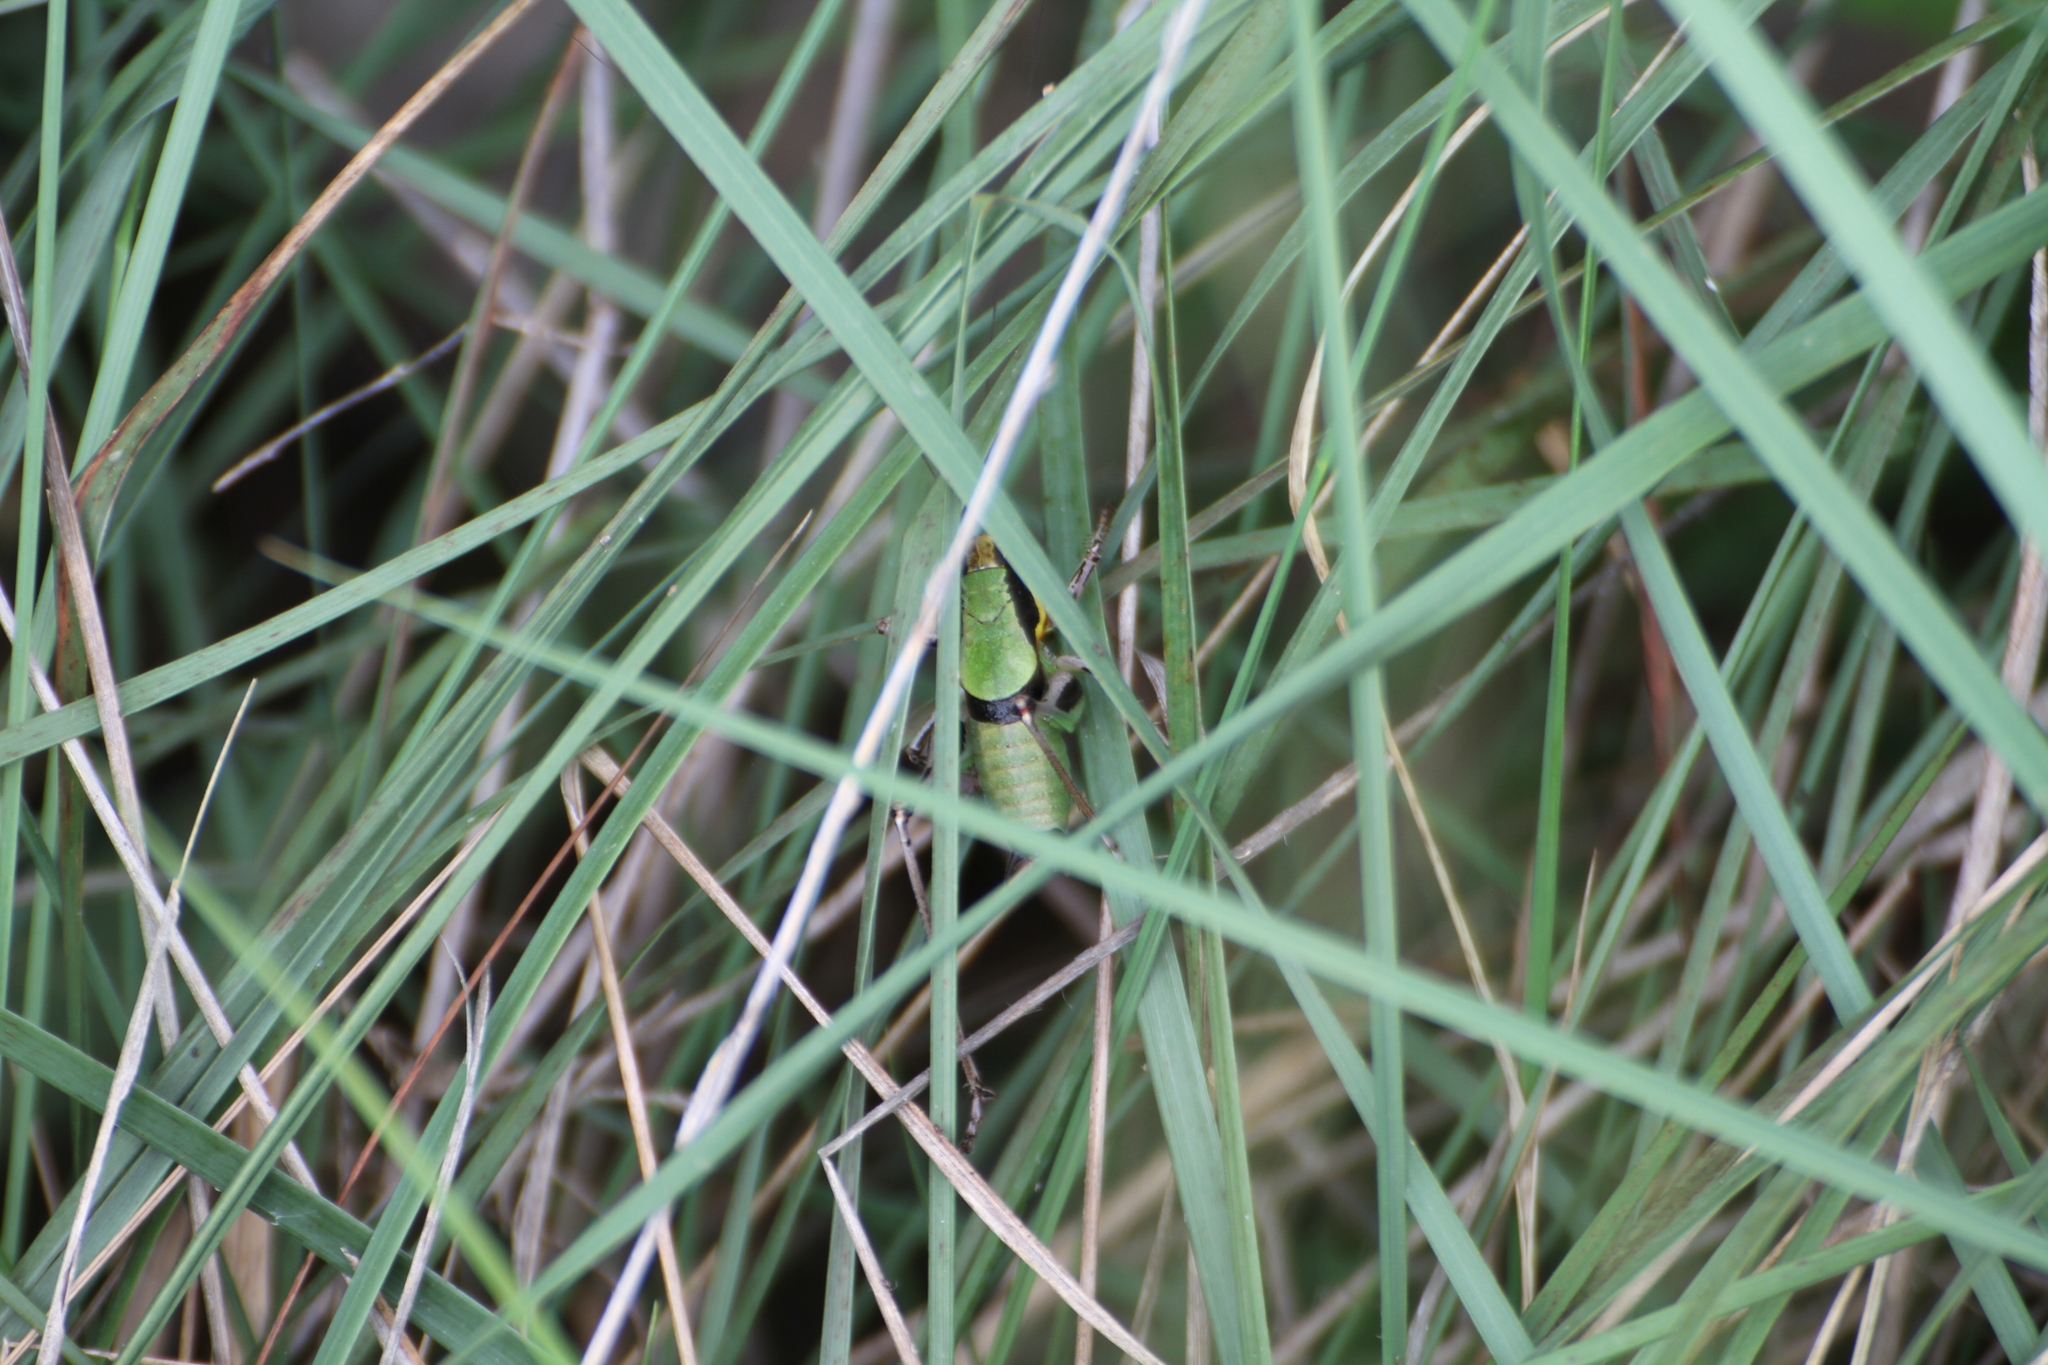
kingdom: Animalia
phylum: Arthropoda
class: Insecta
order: Orthoptera
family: Tettigoniidae
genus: Eupholidoptera
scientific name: Eupholidoptera chabrieri
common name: Chabrier's marbled bush-cricket
